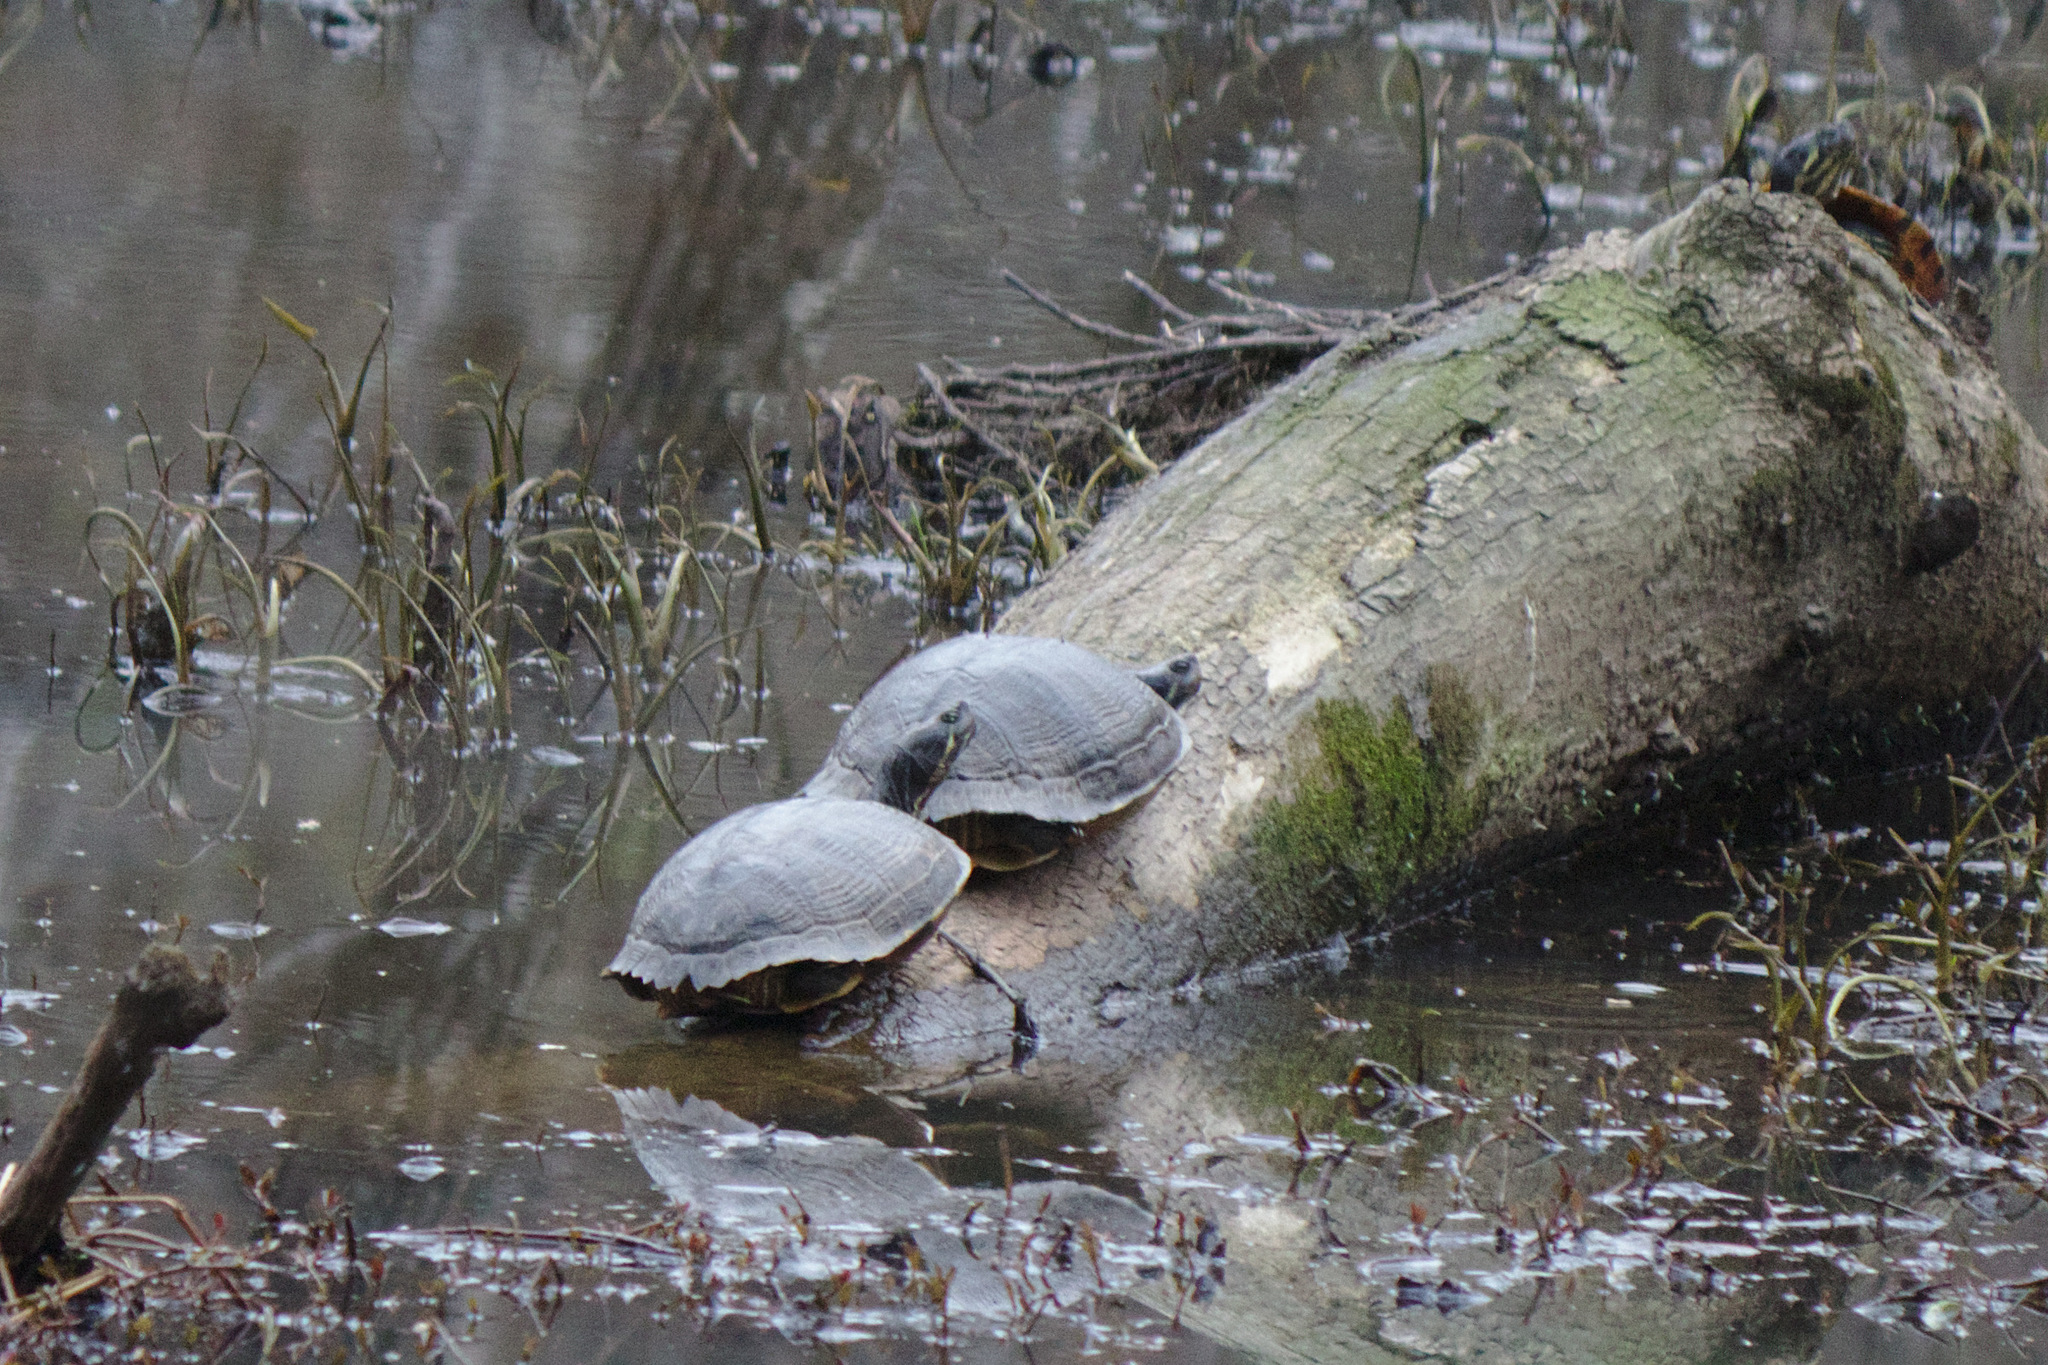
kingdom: Animalia
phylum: Chordata
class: Testudines
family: Emydidae
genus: Trachemys
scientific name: Trachemys scripta
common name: Slider
